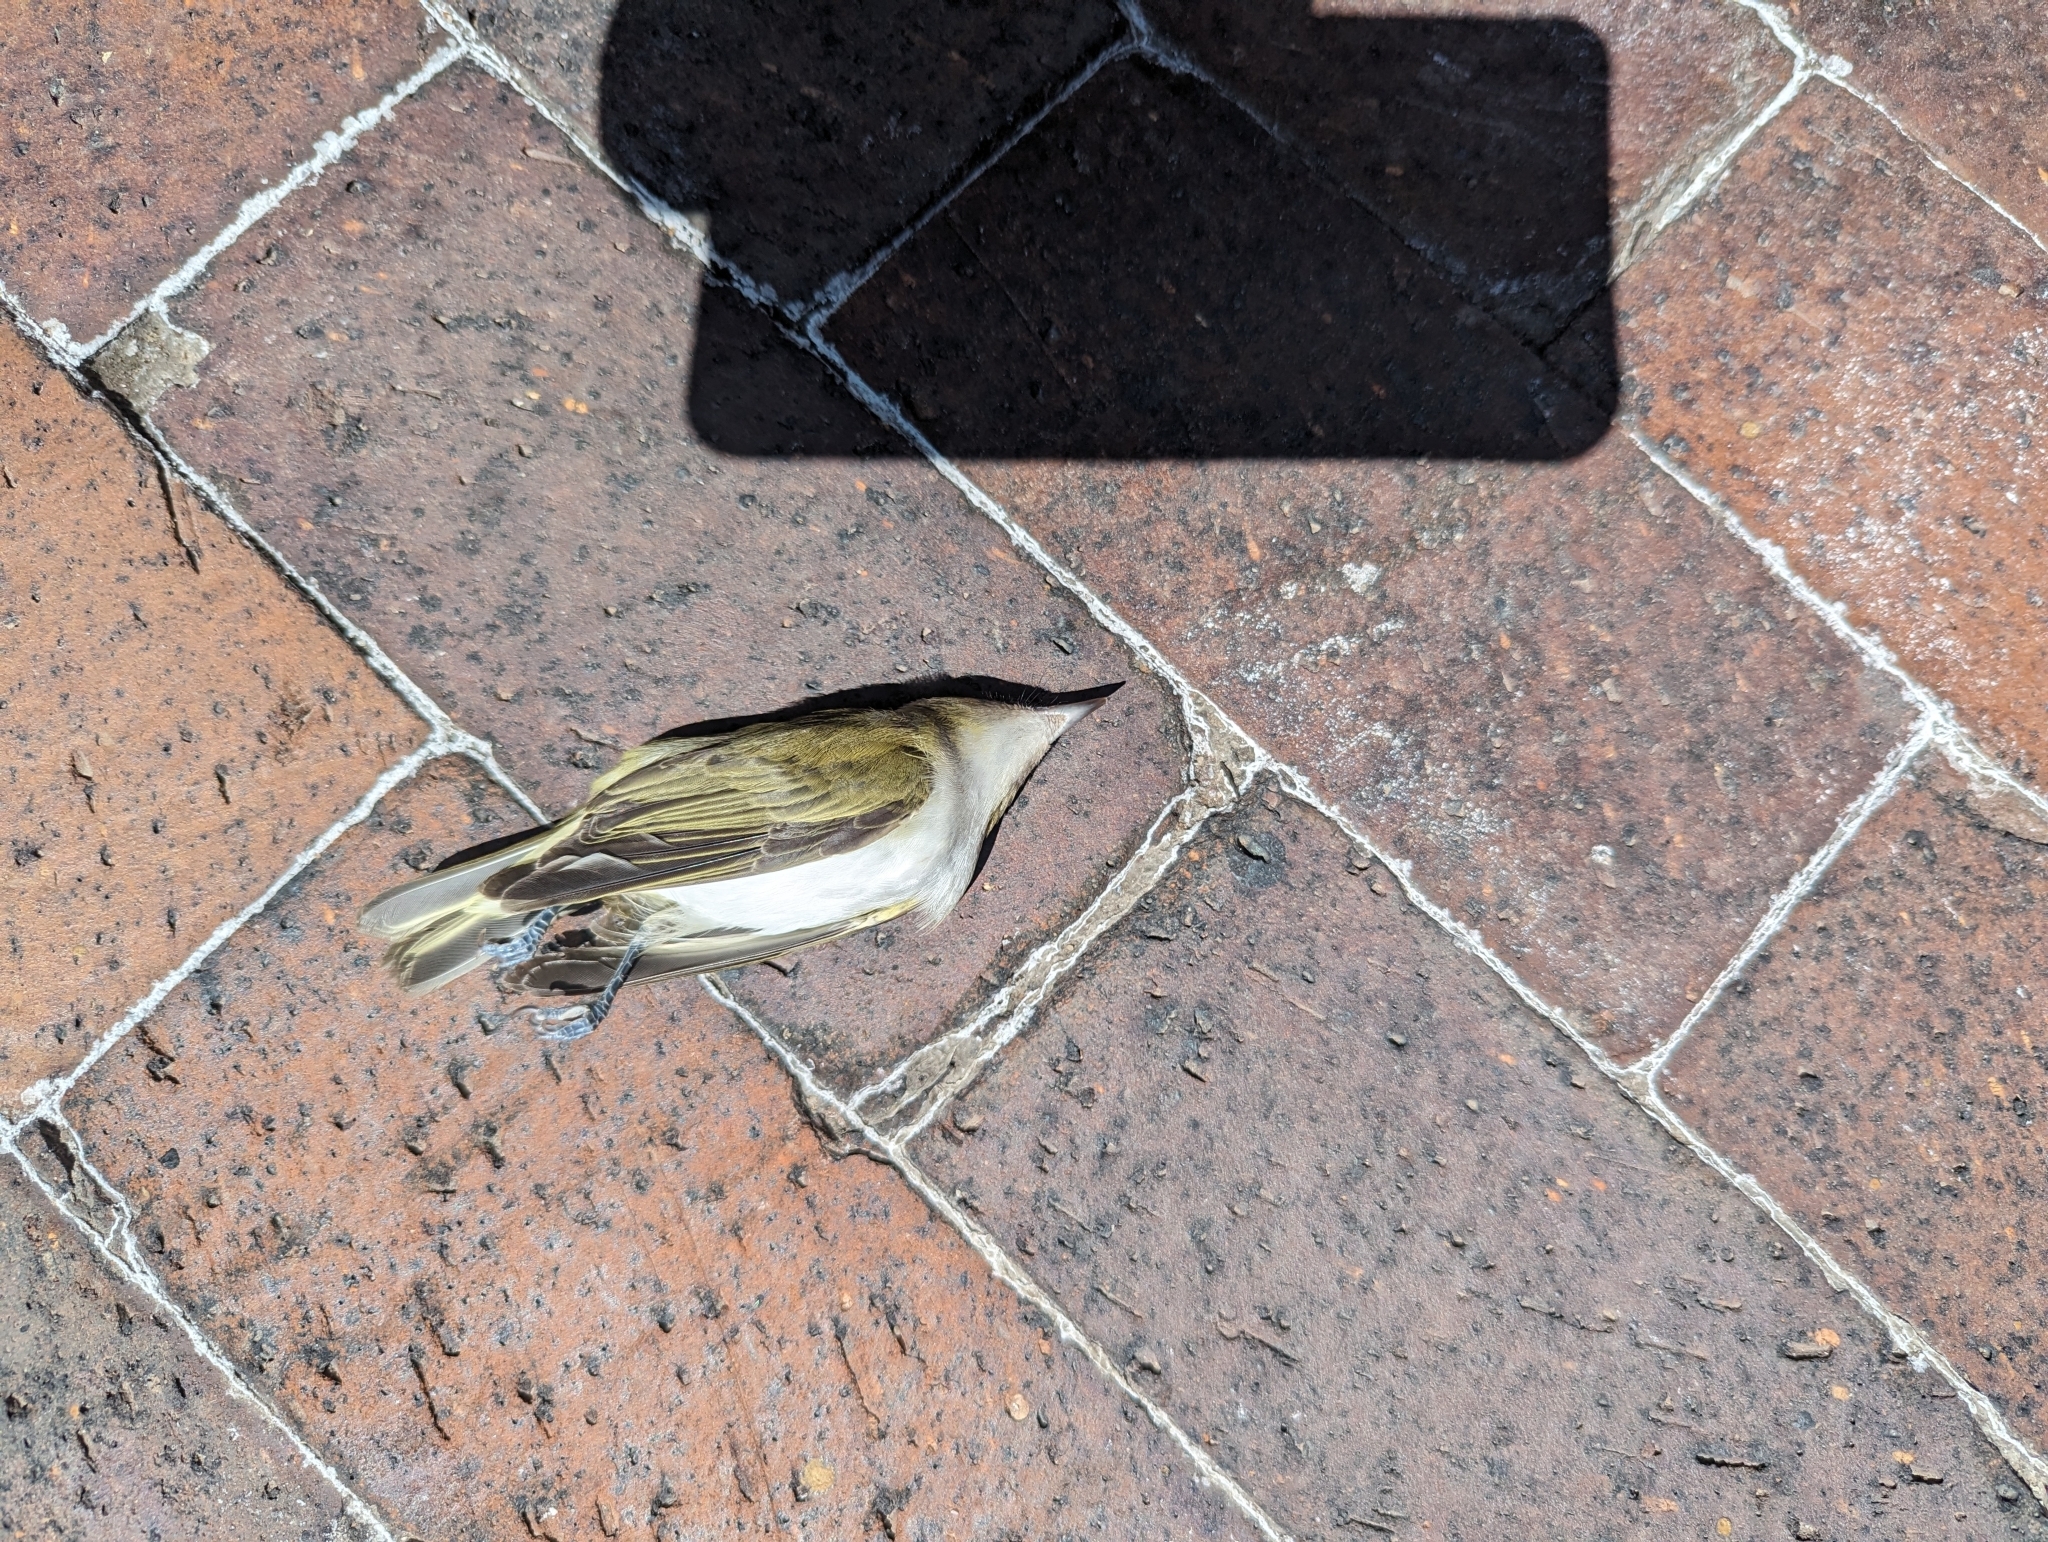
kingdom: Animalia
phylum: Chordata
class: Aves
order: Passeriformes
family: Parulidae
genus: Leiothlypis
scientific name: Leiothlypis peregrina
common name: Tennessee warbler
